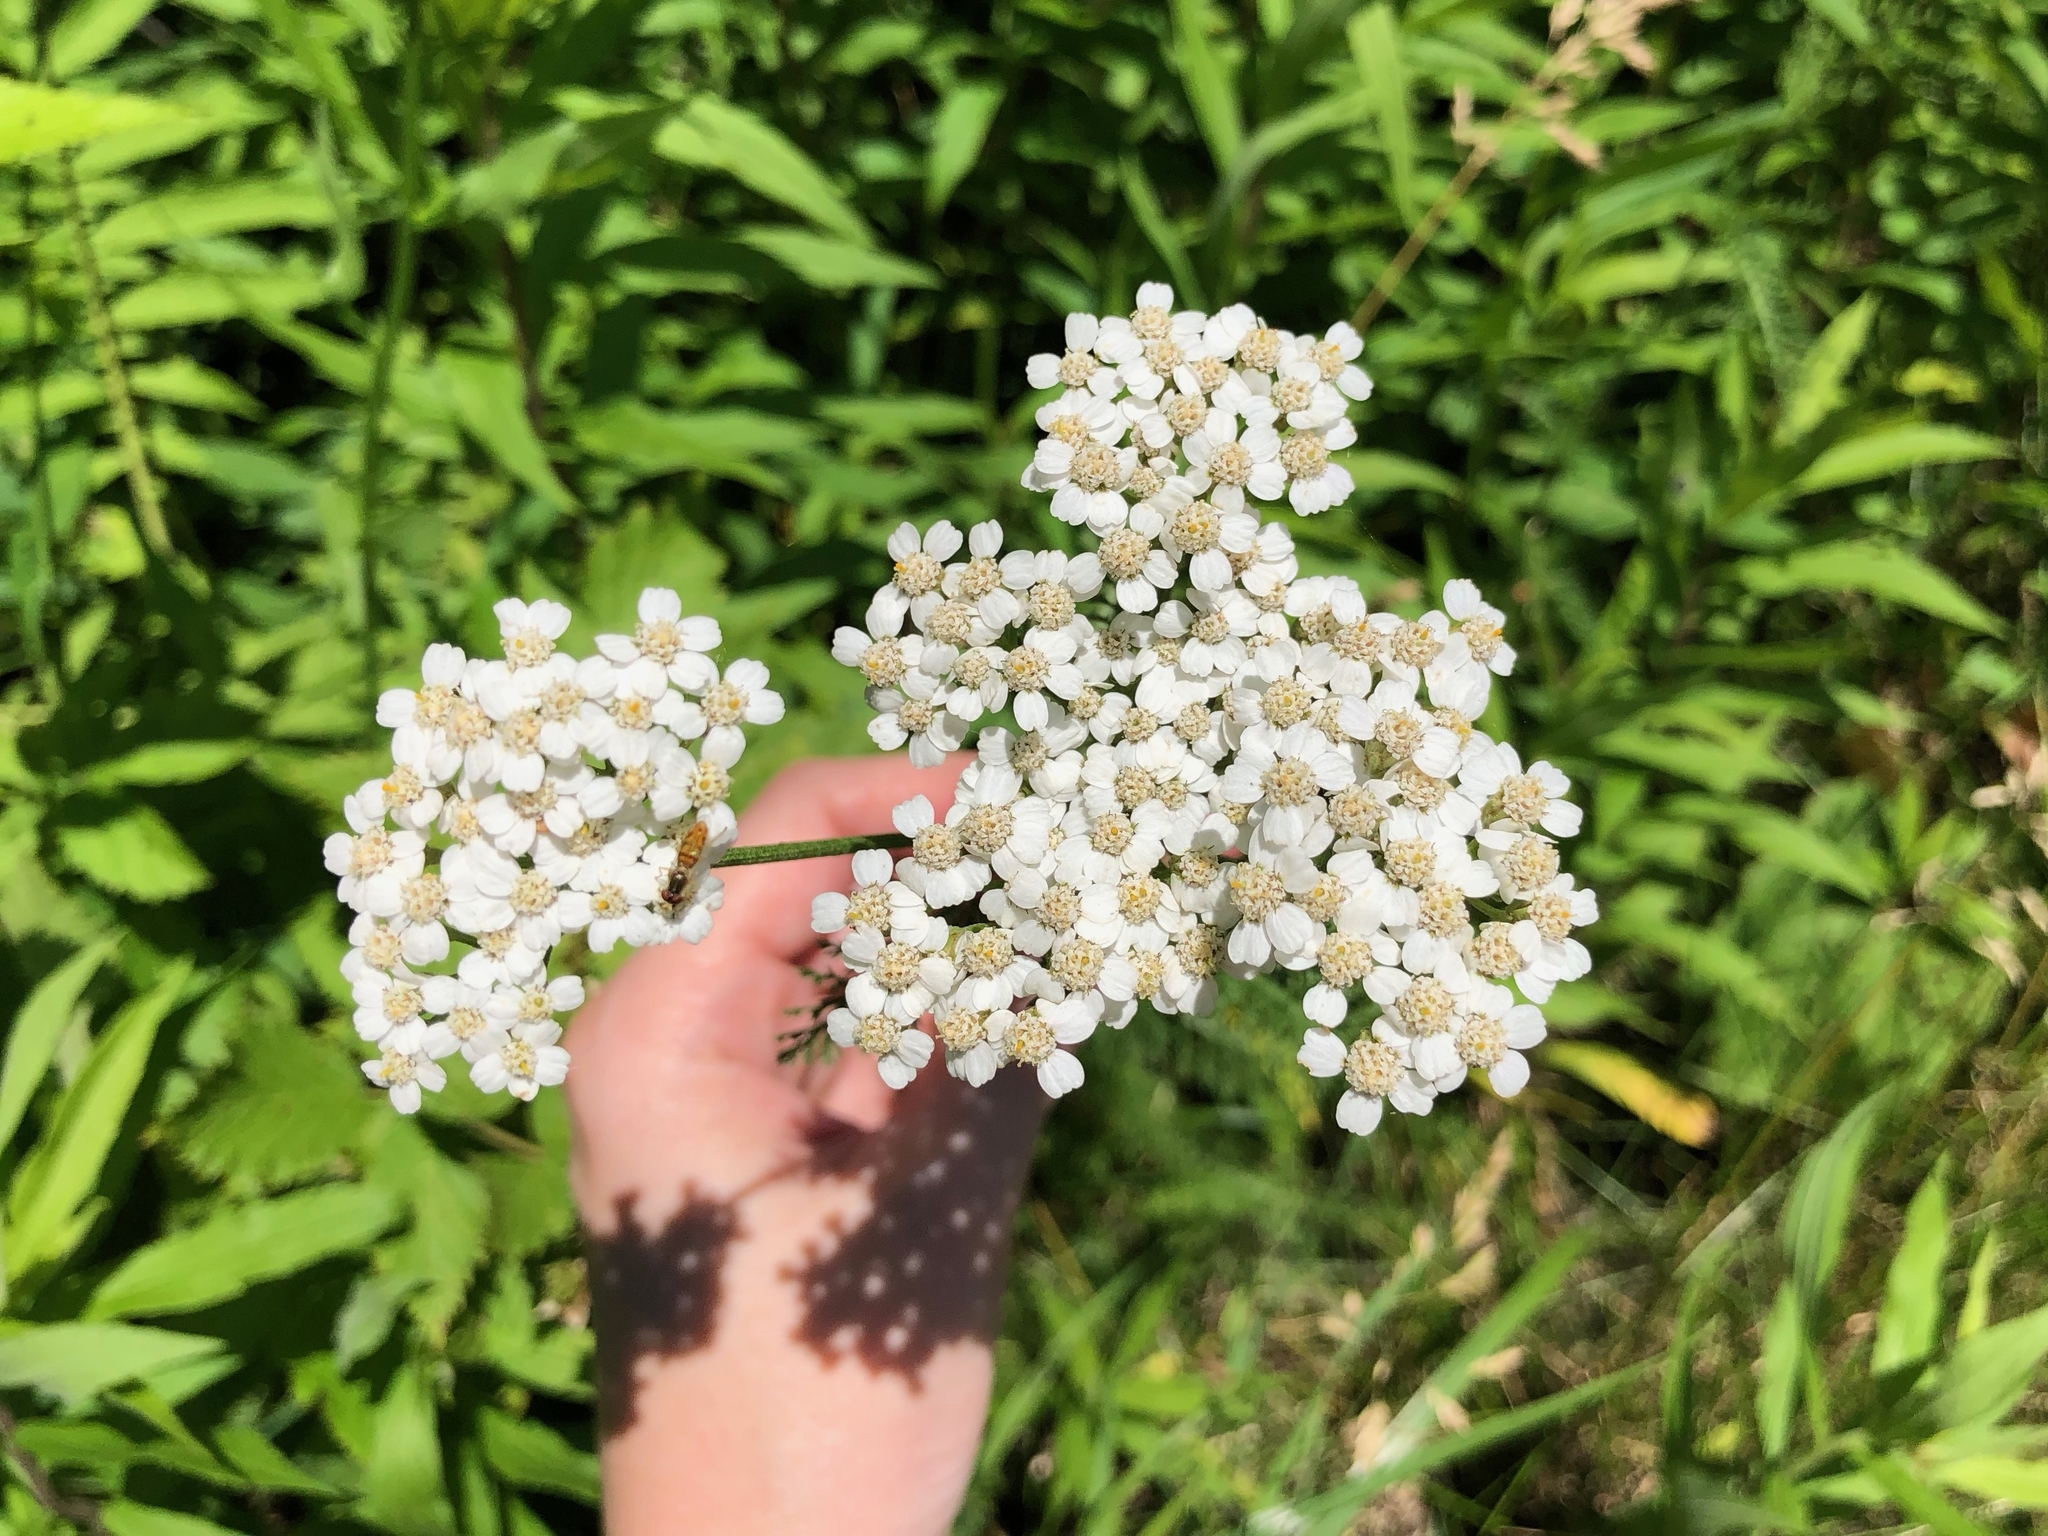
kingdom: Plantae
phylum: Tracheophyta
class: Magnoliopsida
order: Asterales
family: Asteraceae
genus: Achillea
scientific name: Achillea millefolium
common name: Yarrow
